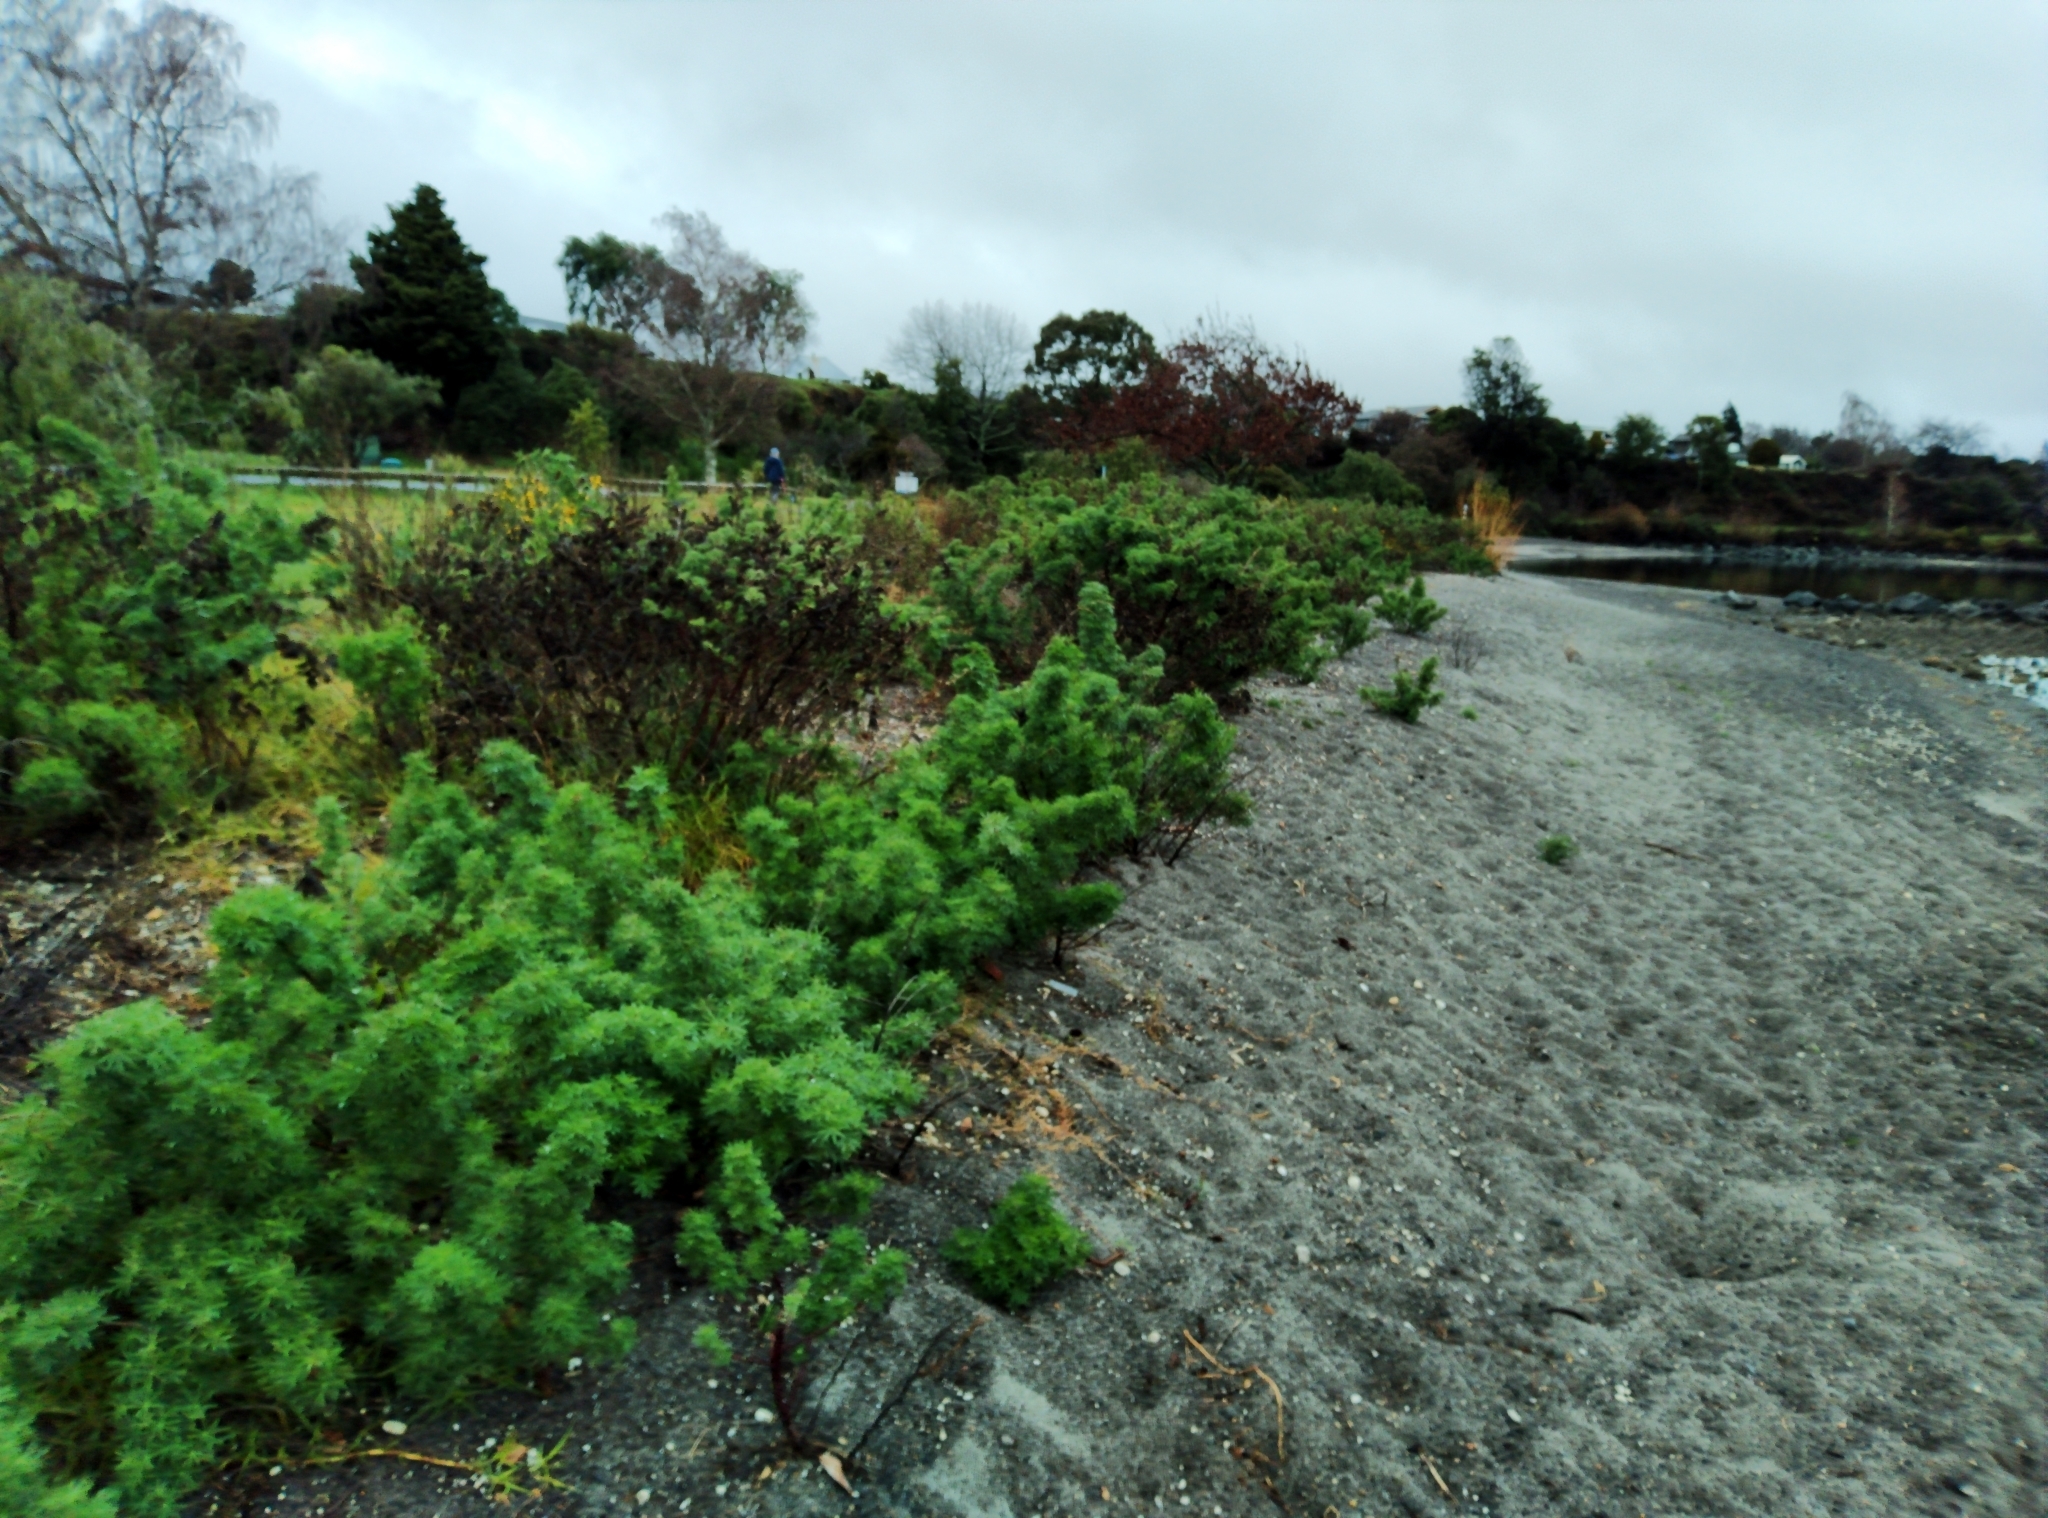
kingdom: Plantae
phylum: Tracheophyta
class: Magnoliopsida
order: Fabales
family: Fabaceae
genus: Lupinus
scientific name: Lupinus arboreus
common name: Yellow bush lupine
